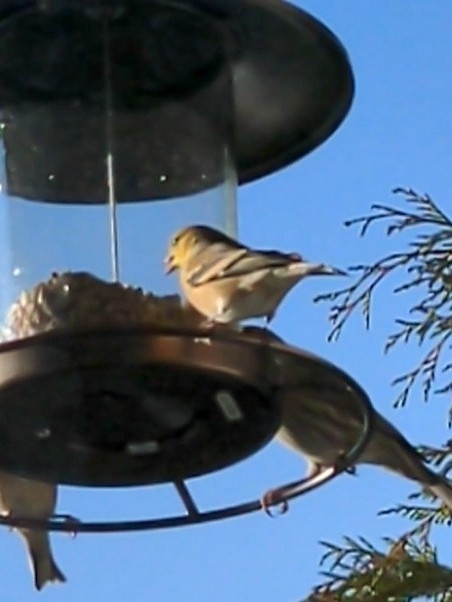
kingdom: Animalia
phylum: Chordata
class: Aves
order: Passeriformes
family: Fringillidae
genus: Spinus
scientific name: Spinus tristis
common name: American goldfinch
